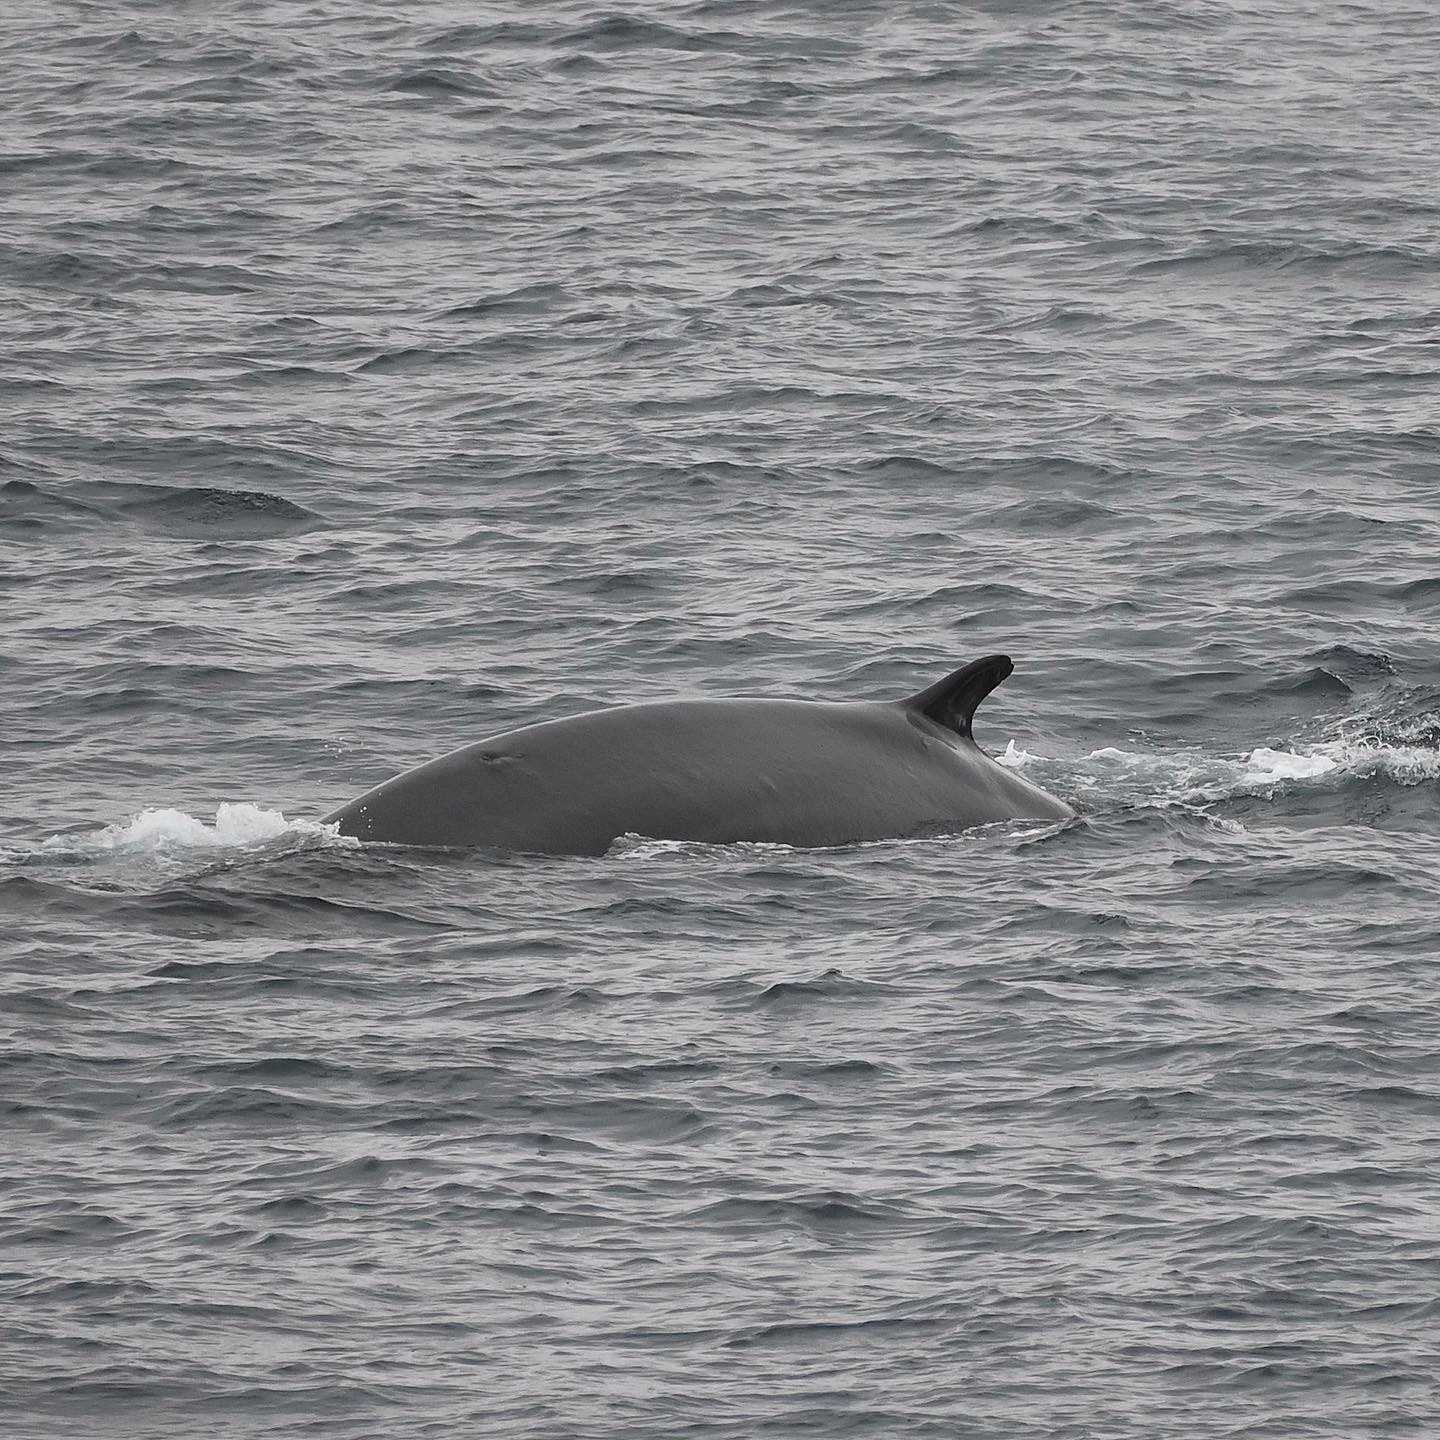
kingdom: Animalia
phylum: Chordata
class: Mammalia
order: Cetacea
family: Balaenopteridae
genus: Balaenoptera
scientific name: Balaenoptera physalus
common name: Fin whale
